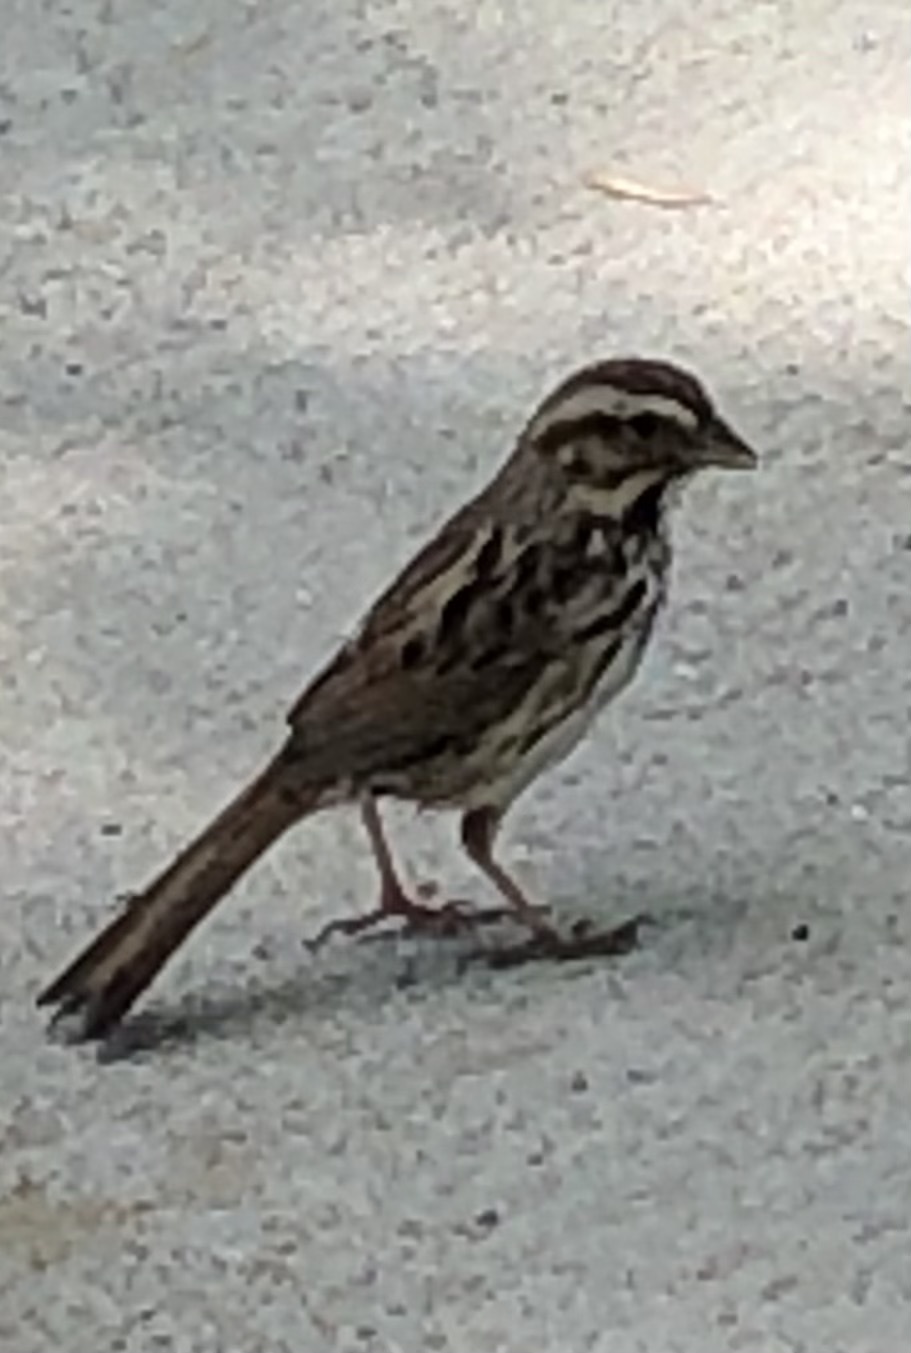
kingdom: Animalia
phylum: Chordata
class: Aves
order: Passeriformes
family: Passerellidae
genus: Melospiza
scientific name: Melospiza melodia
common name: Song sparrow
